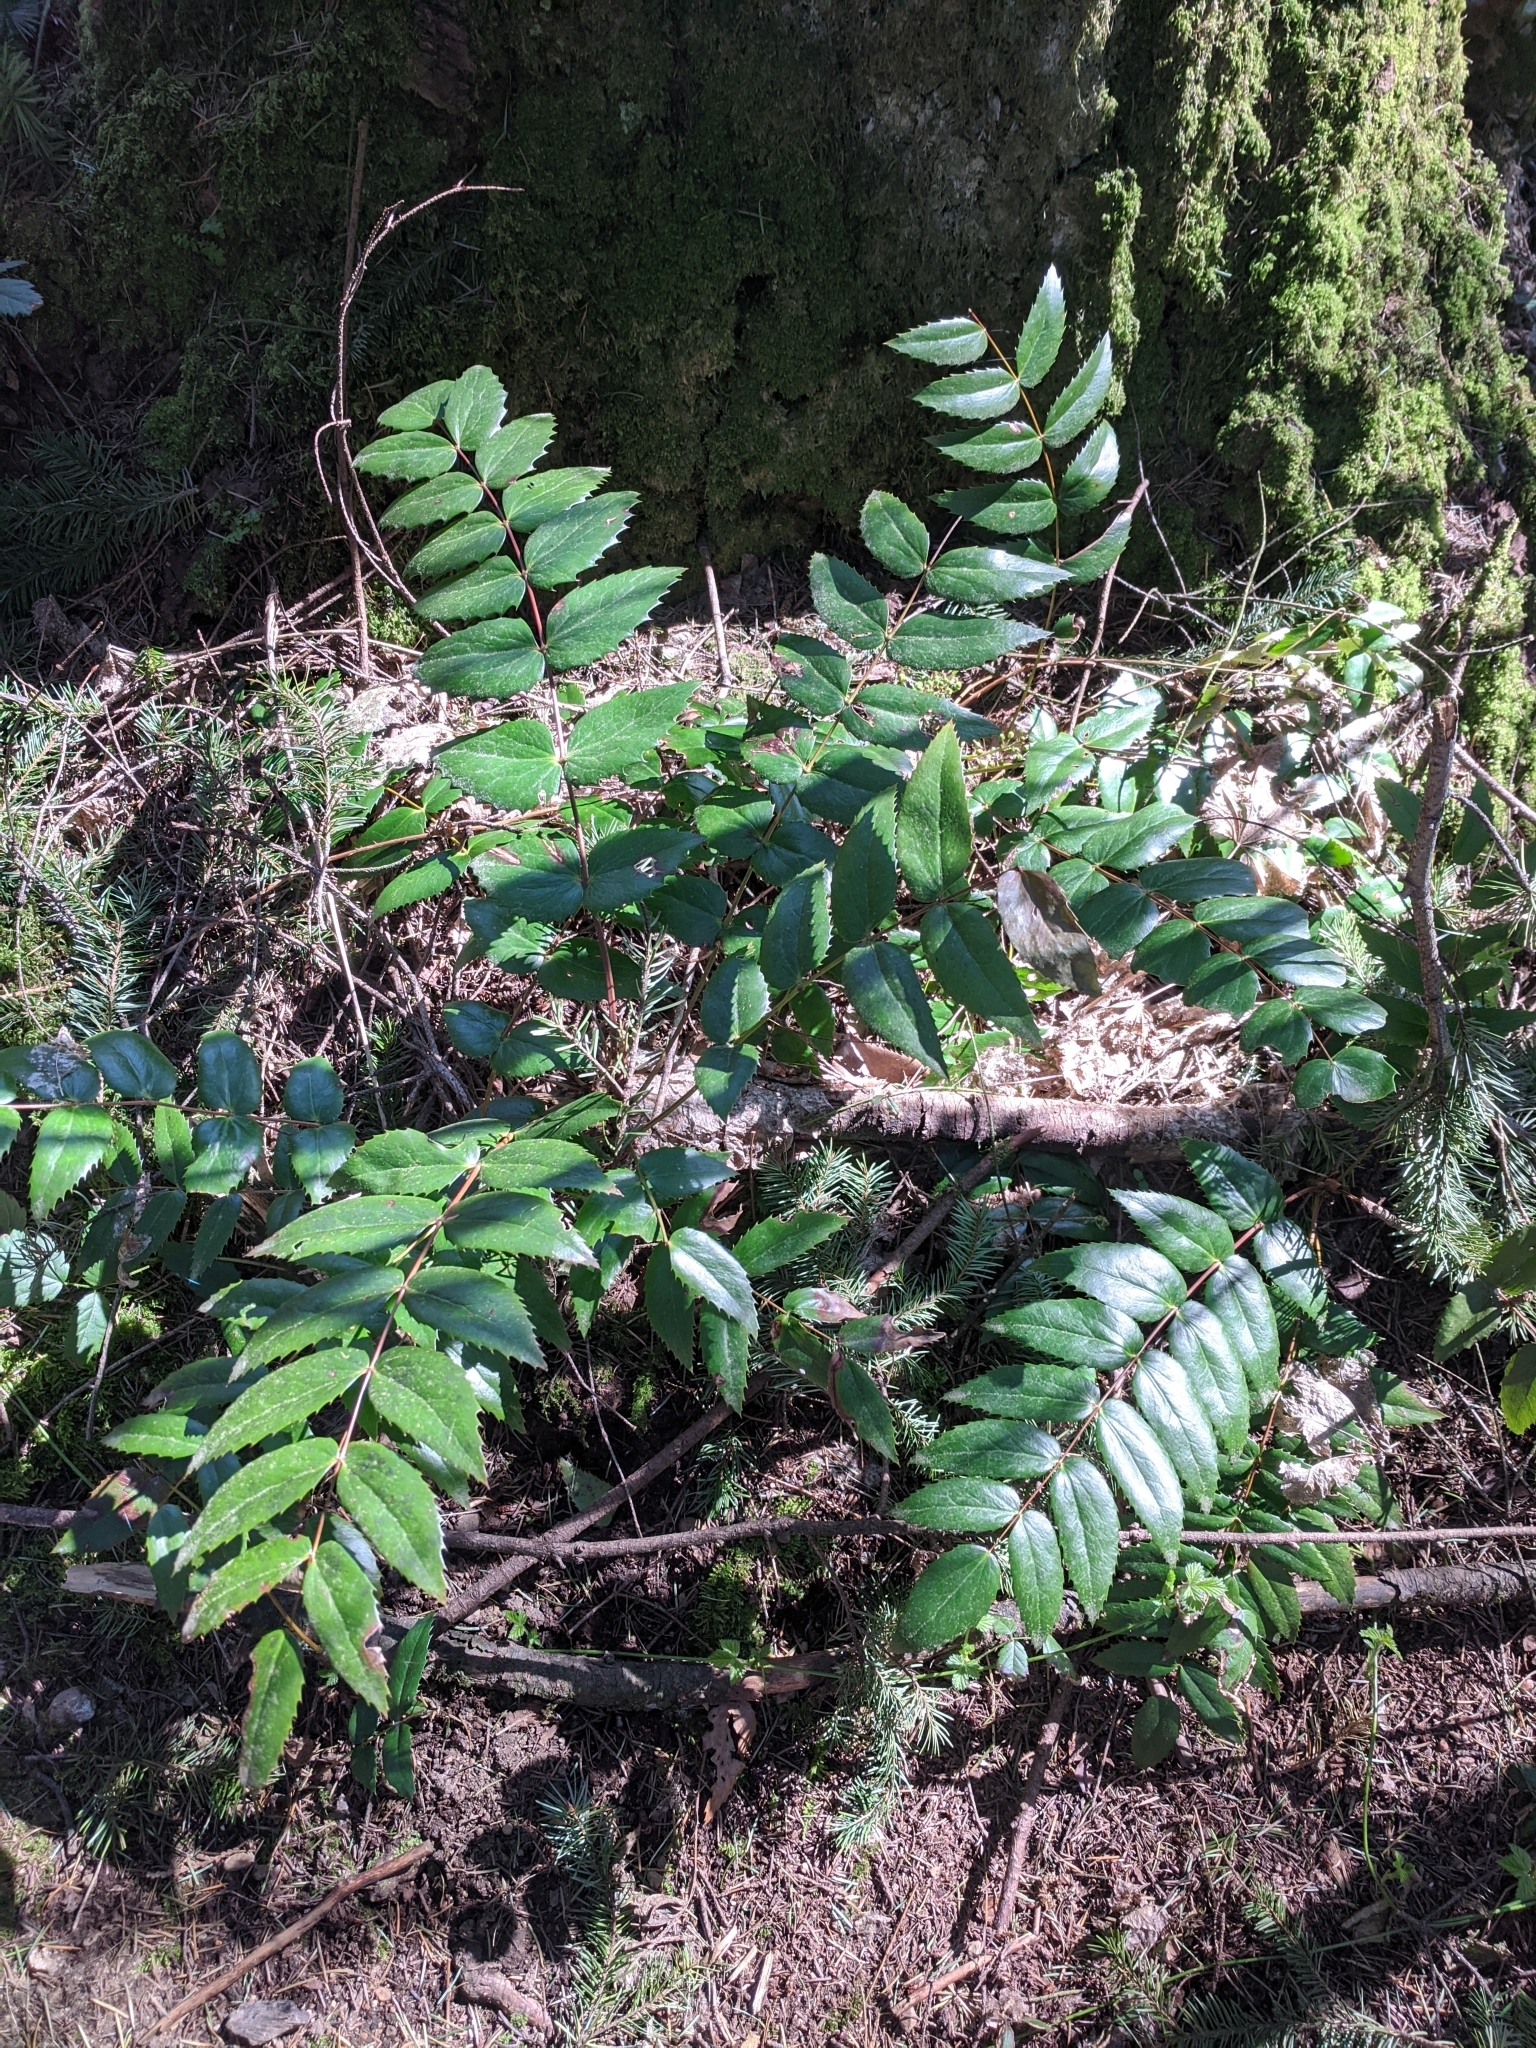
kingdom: Plantae
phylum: Tracheophyta
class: Magnoliopsida
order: Ranunculales
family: Berberidaceae
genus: Mahonia
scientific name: Mahonia nervosa
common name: Cascade oregon-grape
